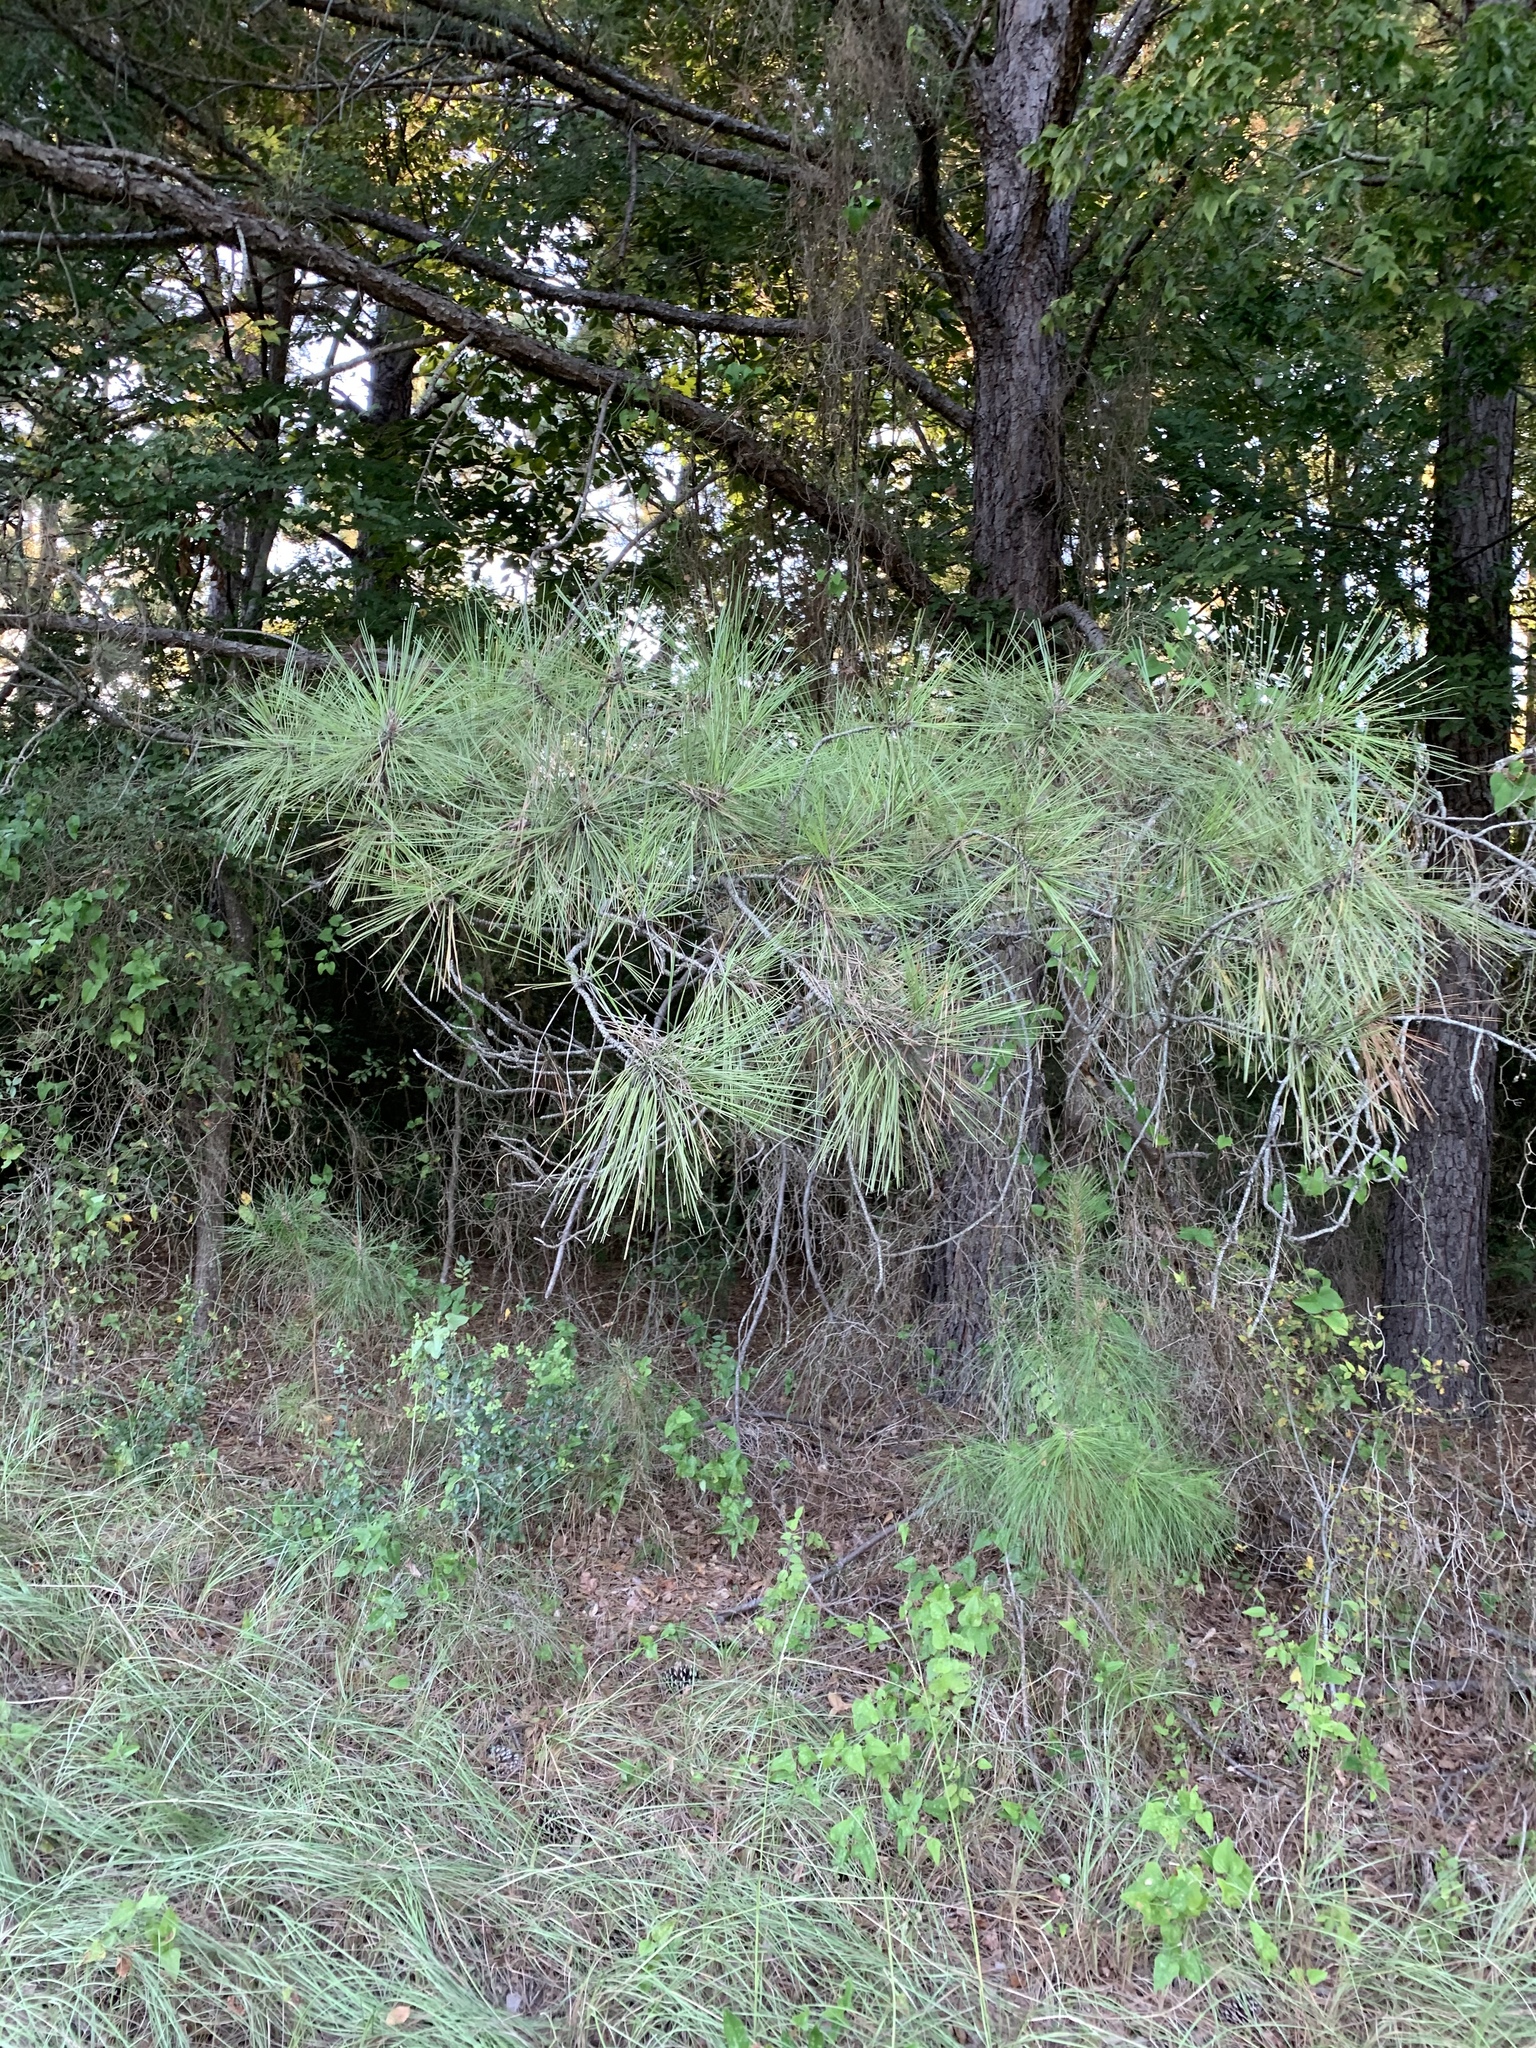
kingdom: Plantae
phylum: Tracheophyta
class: Pinopsida
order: Pinales
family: Pinaceae
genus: Pinus
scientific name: Pinus taeda
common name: Loblolly pine
